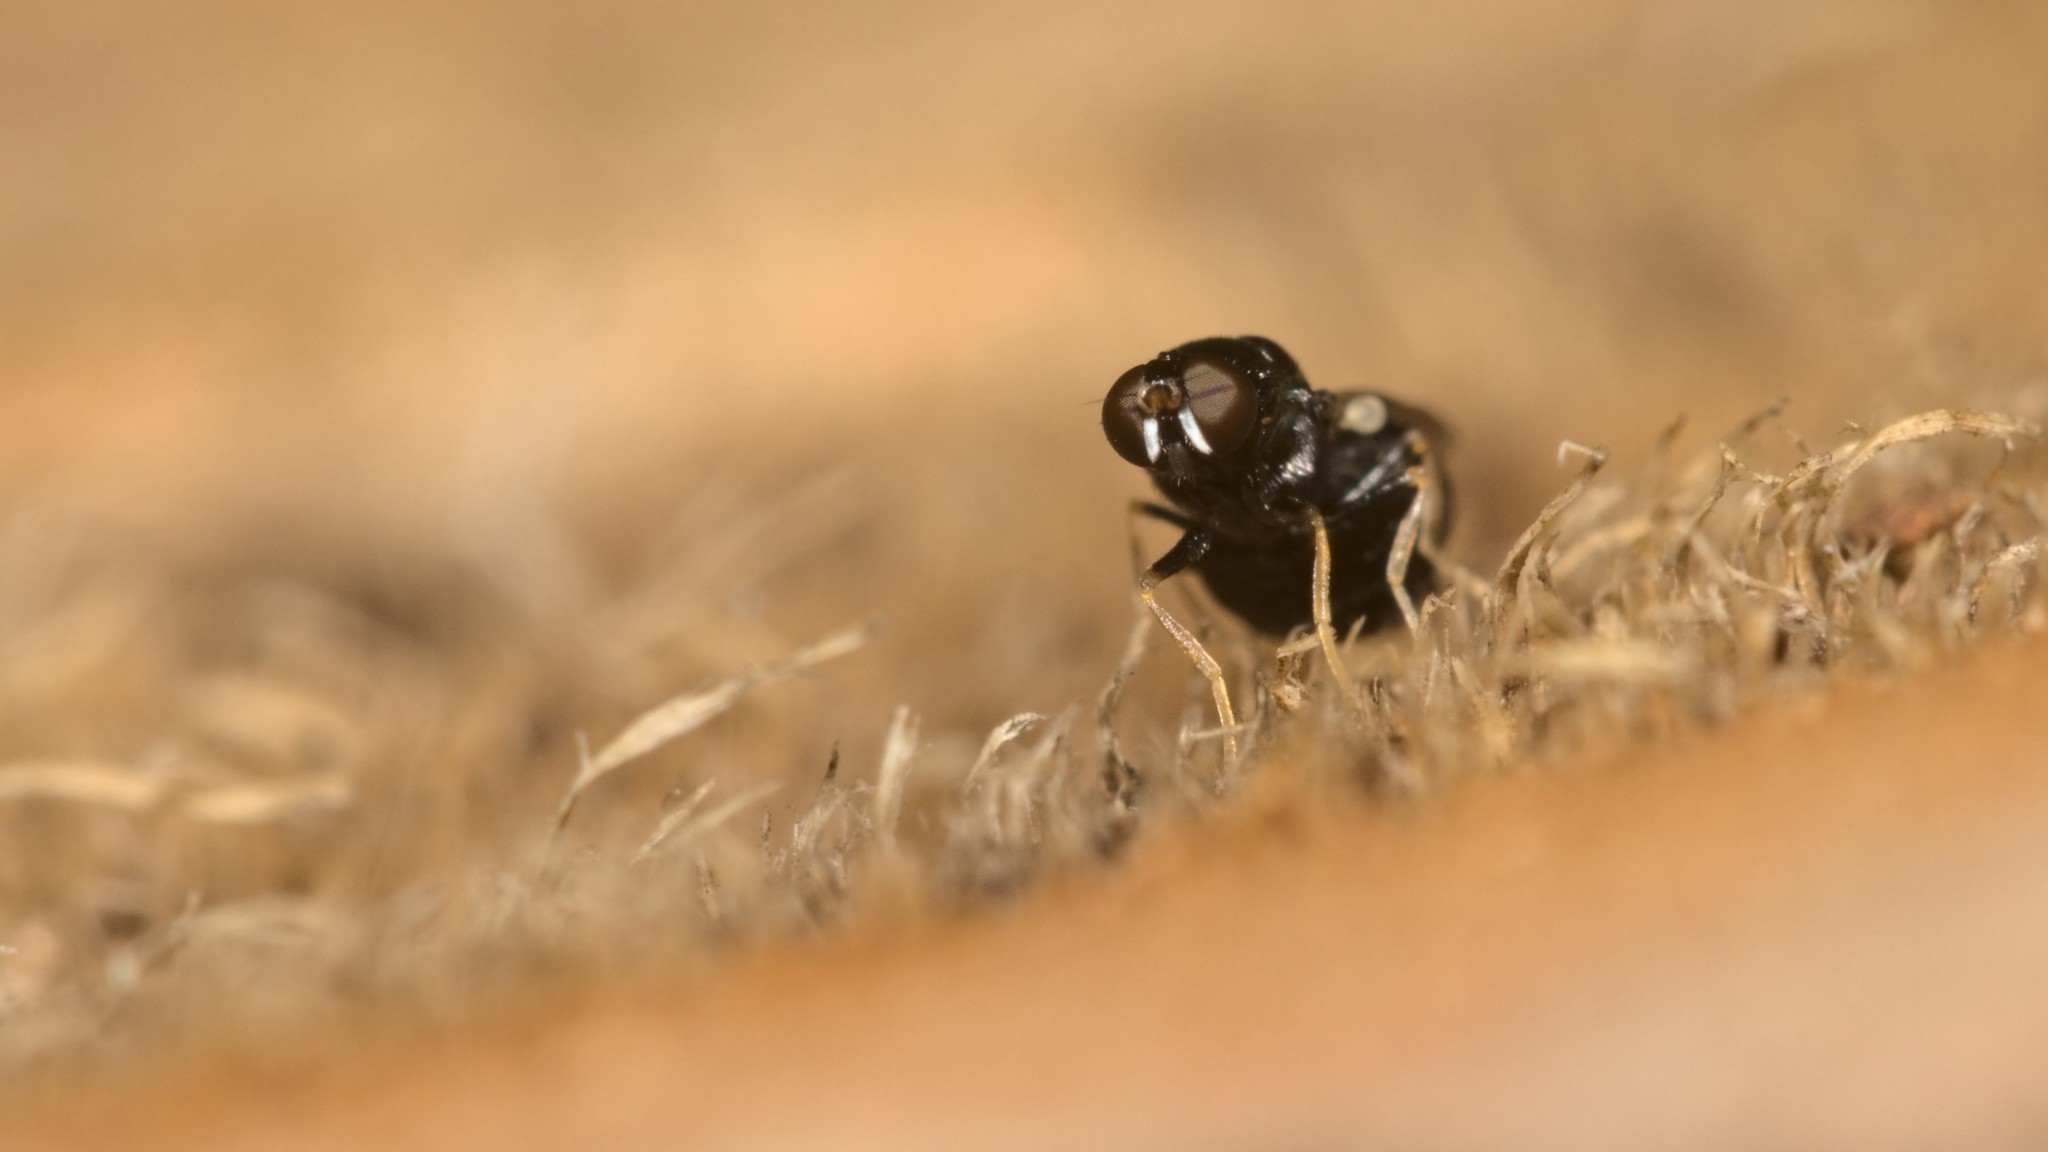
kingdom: Animalia
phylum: Arthropoda
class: Insecta
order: Diptera
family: Stratiomyidae
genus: Neopachygaster
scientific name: Neopachygaster meromelas
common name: Silver-strips black
